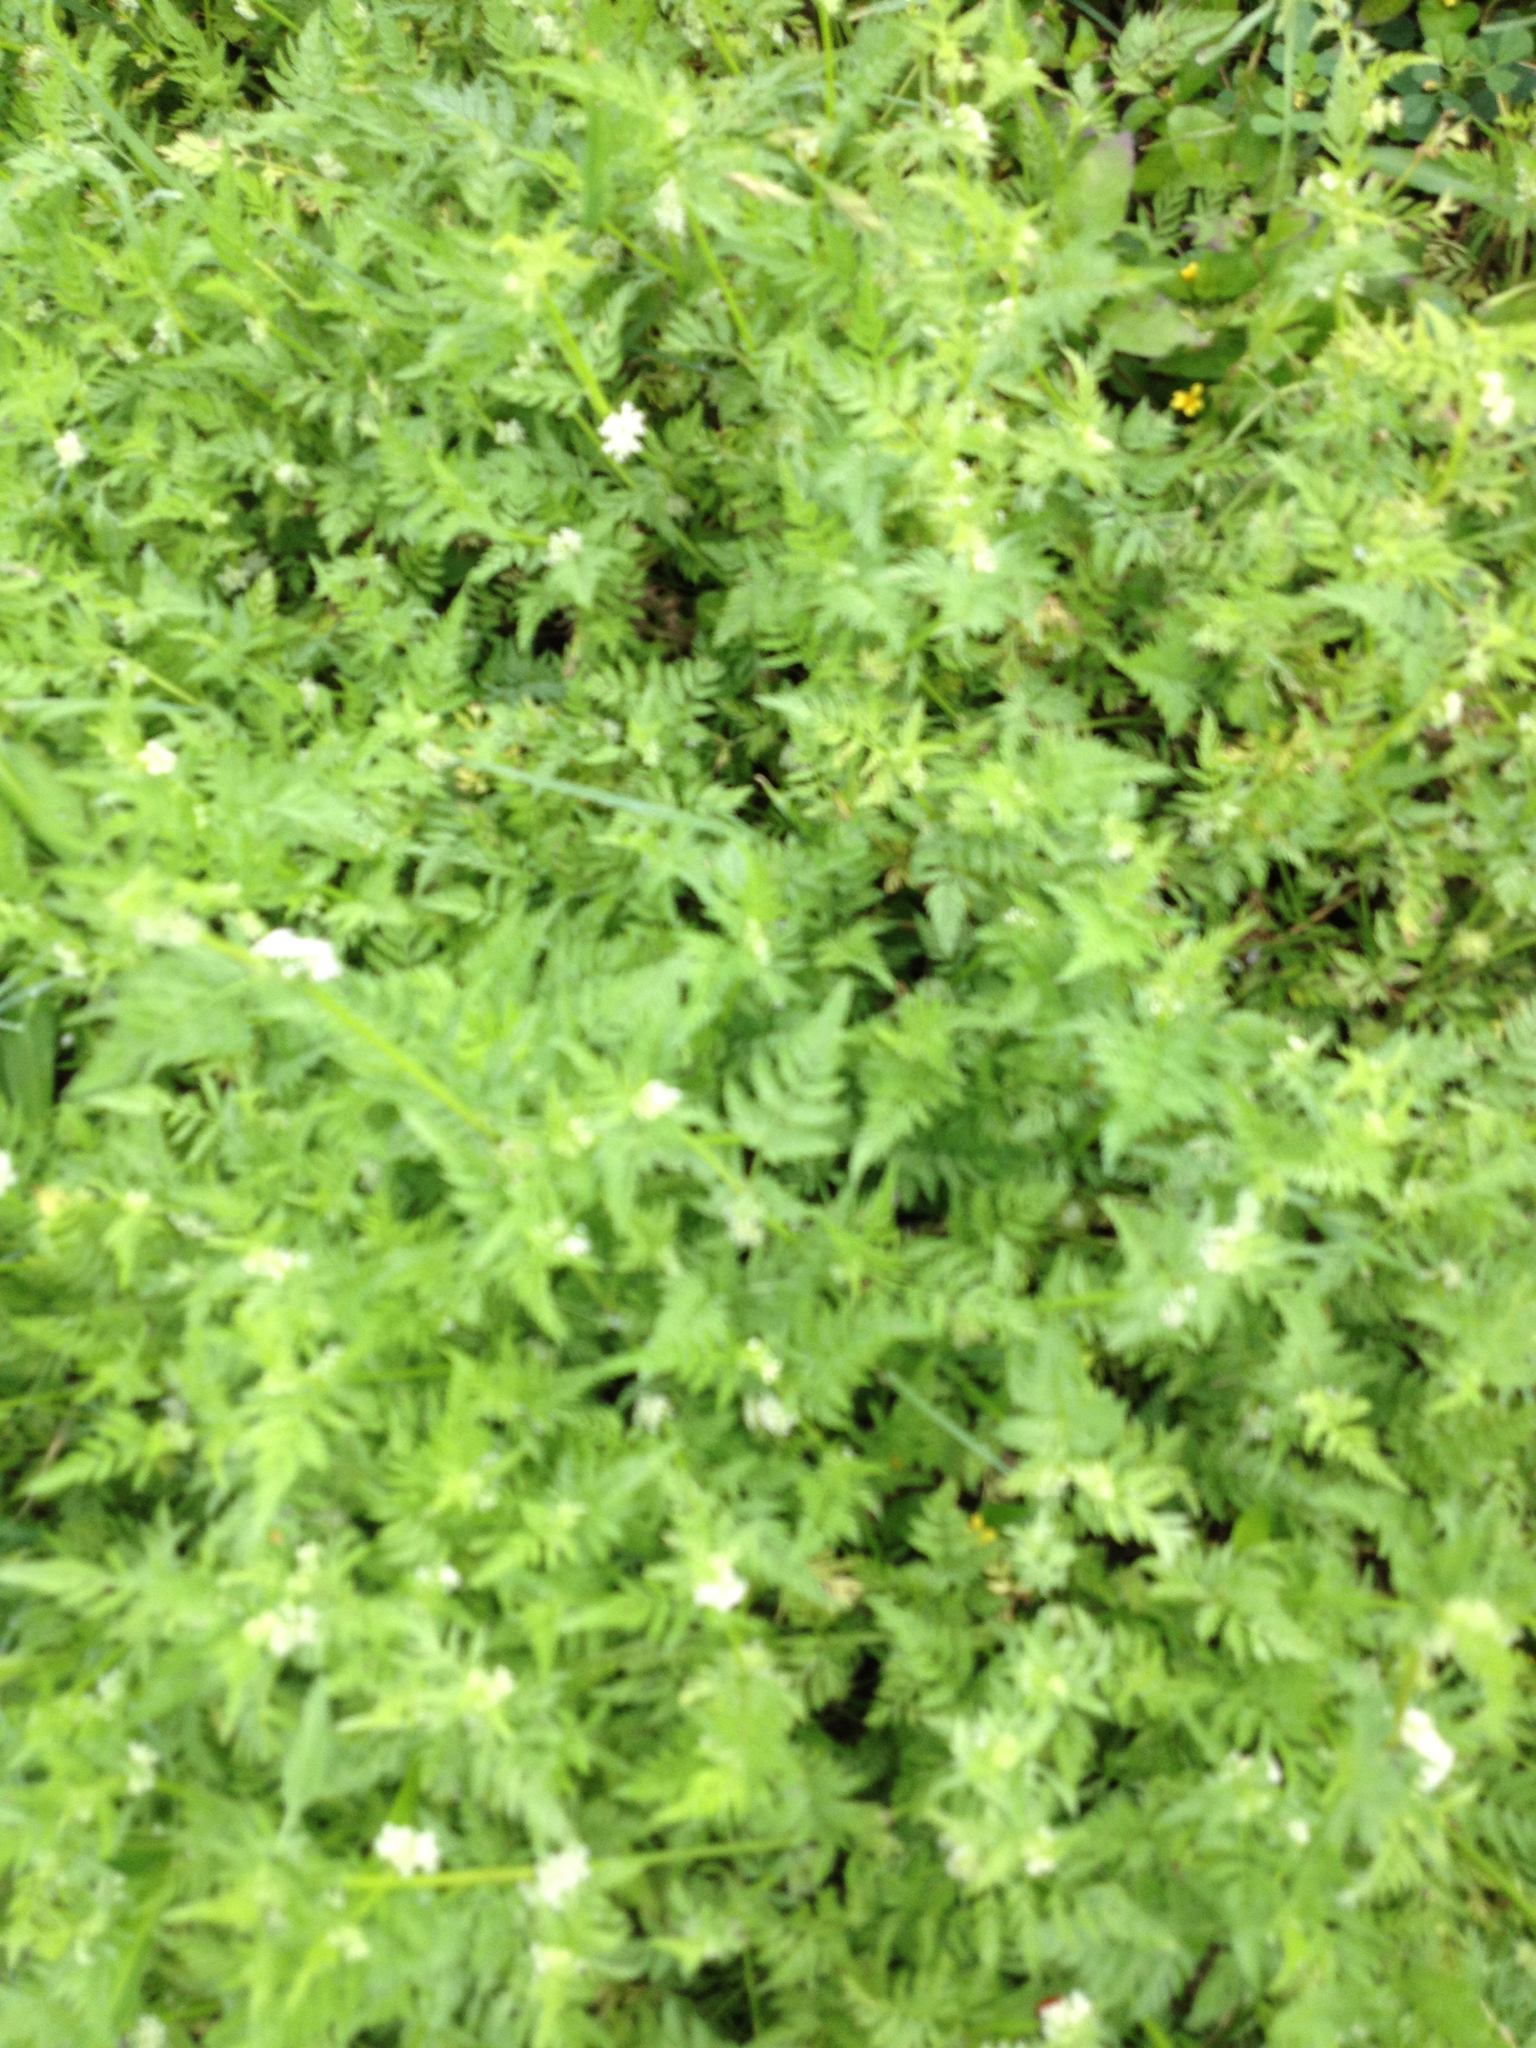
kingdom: Plantae
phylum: Tracheophyta
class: Magnoliopsida
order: Apiales
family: Apiaceae
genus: Torilis
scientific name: Torilis nodosa
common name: Knotted hedge-parsley
